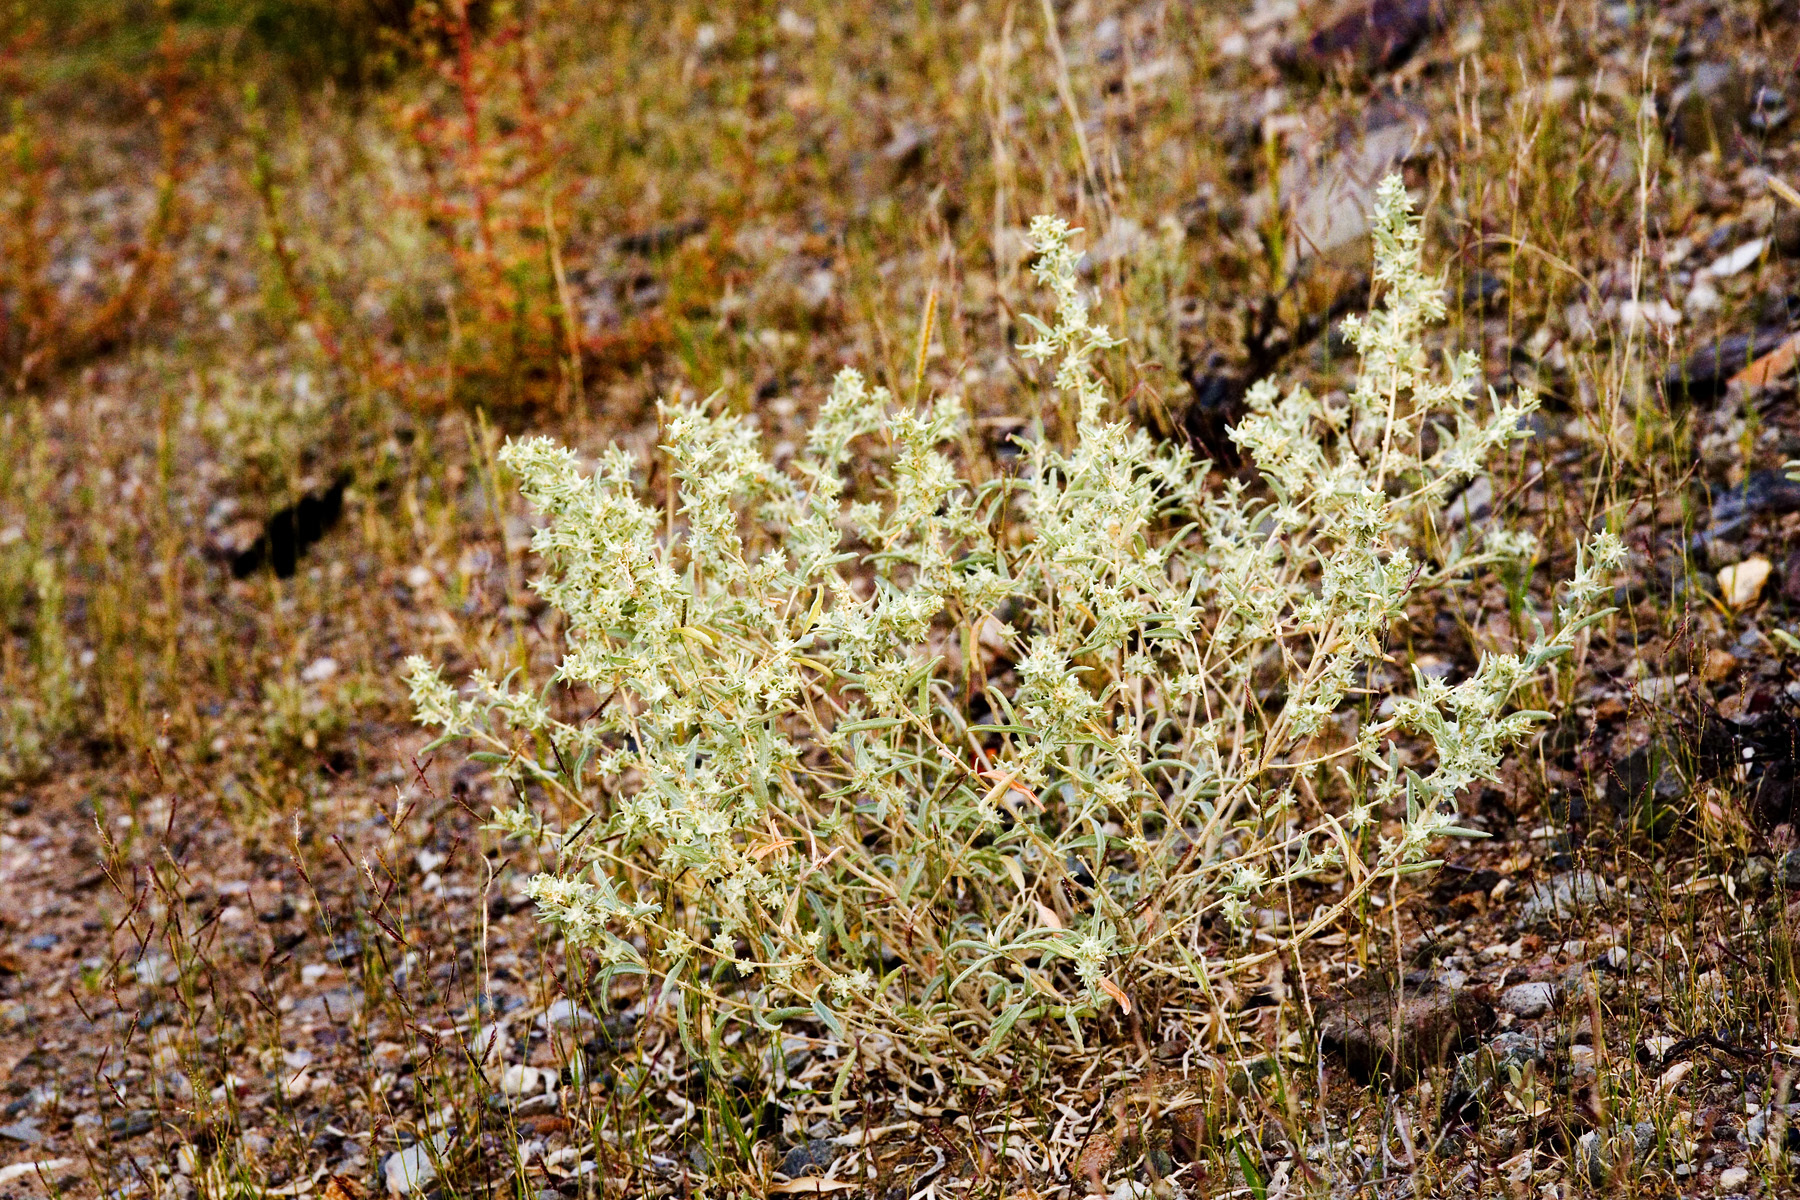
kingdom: Plantae
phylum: Tracheophyta
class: Magnoliopsida
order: Caryophyllales
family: Amaranthaceae
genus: Atriplex
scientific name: Atriplex acanthocarpa
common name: Burscale
